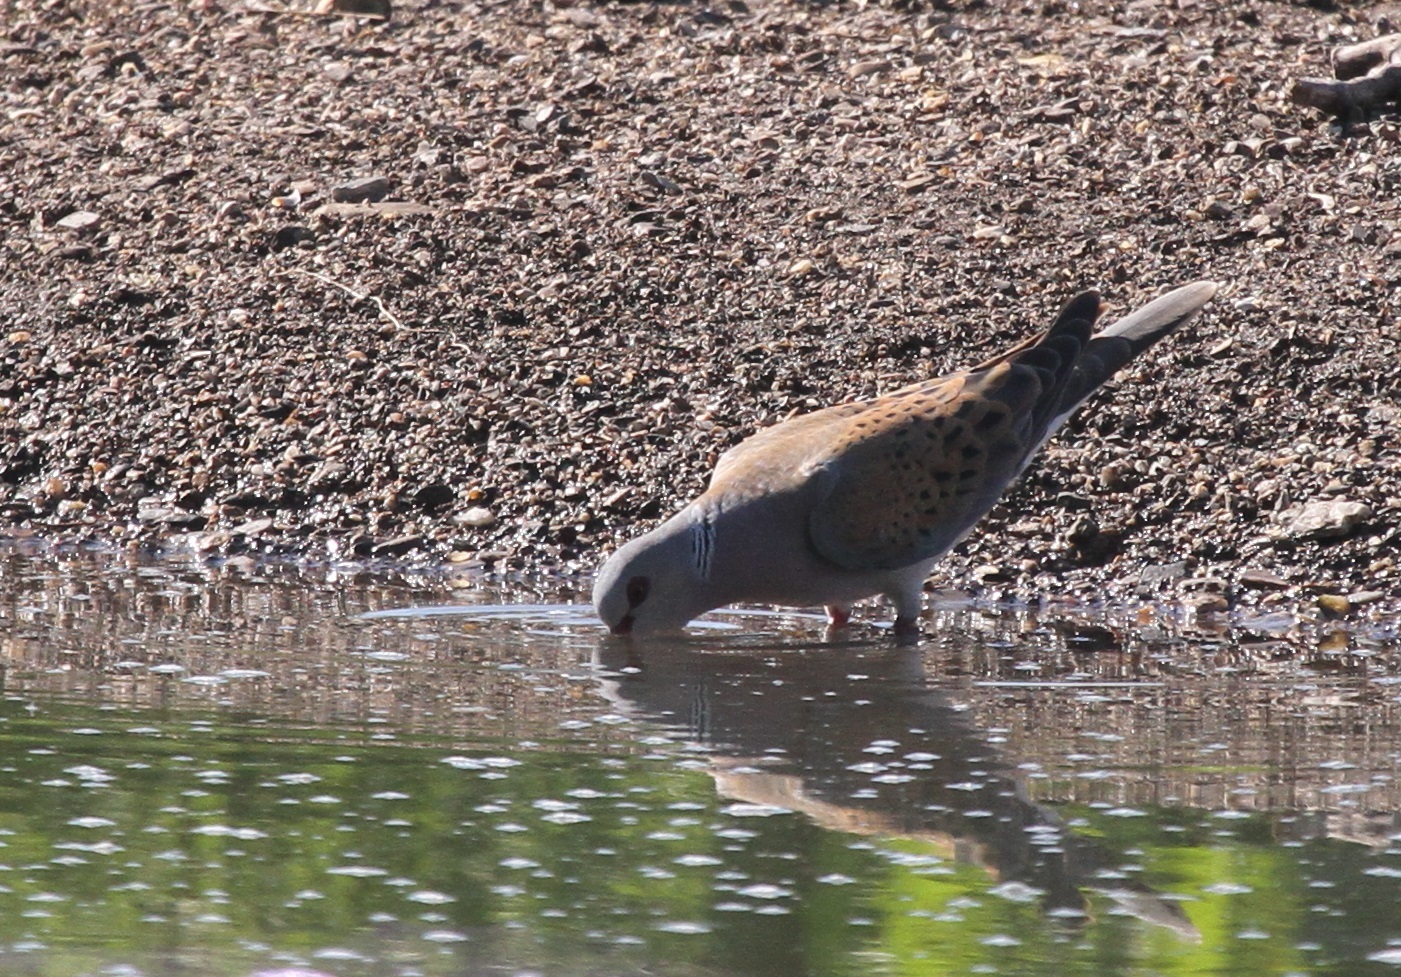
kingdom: Animalia
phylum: Chordata
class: Aves
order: Columbiformes
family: Columbidae
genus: Streptopelia
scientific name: Streptopelia turtur
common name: European turtle dove
